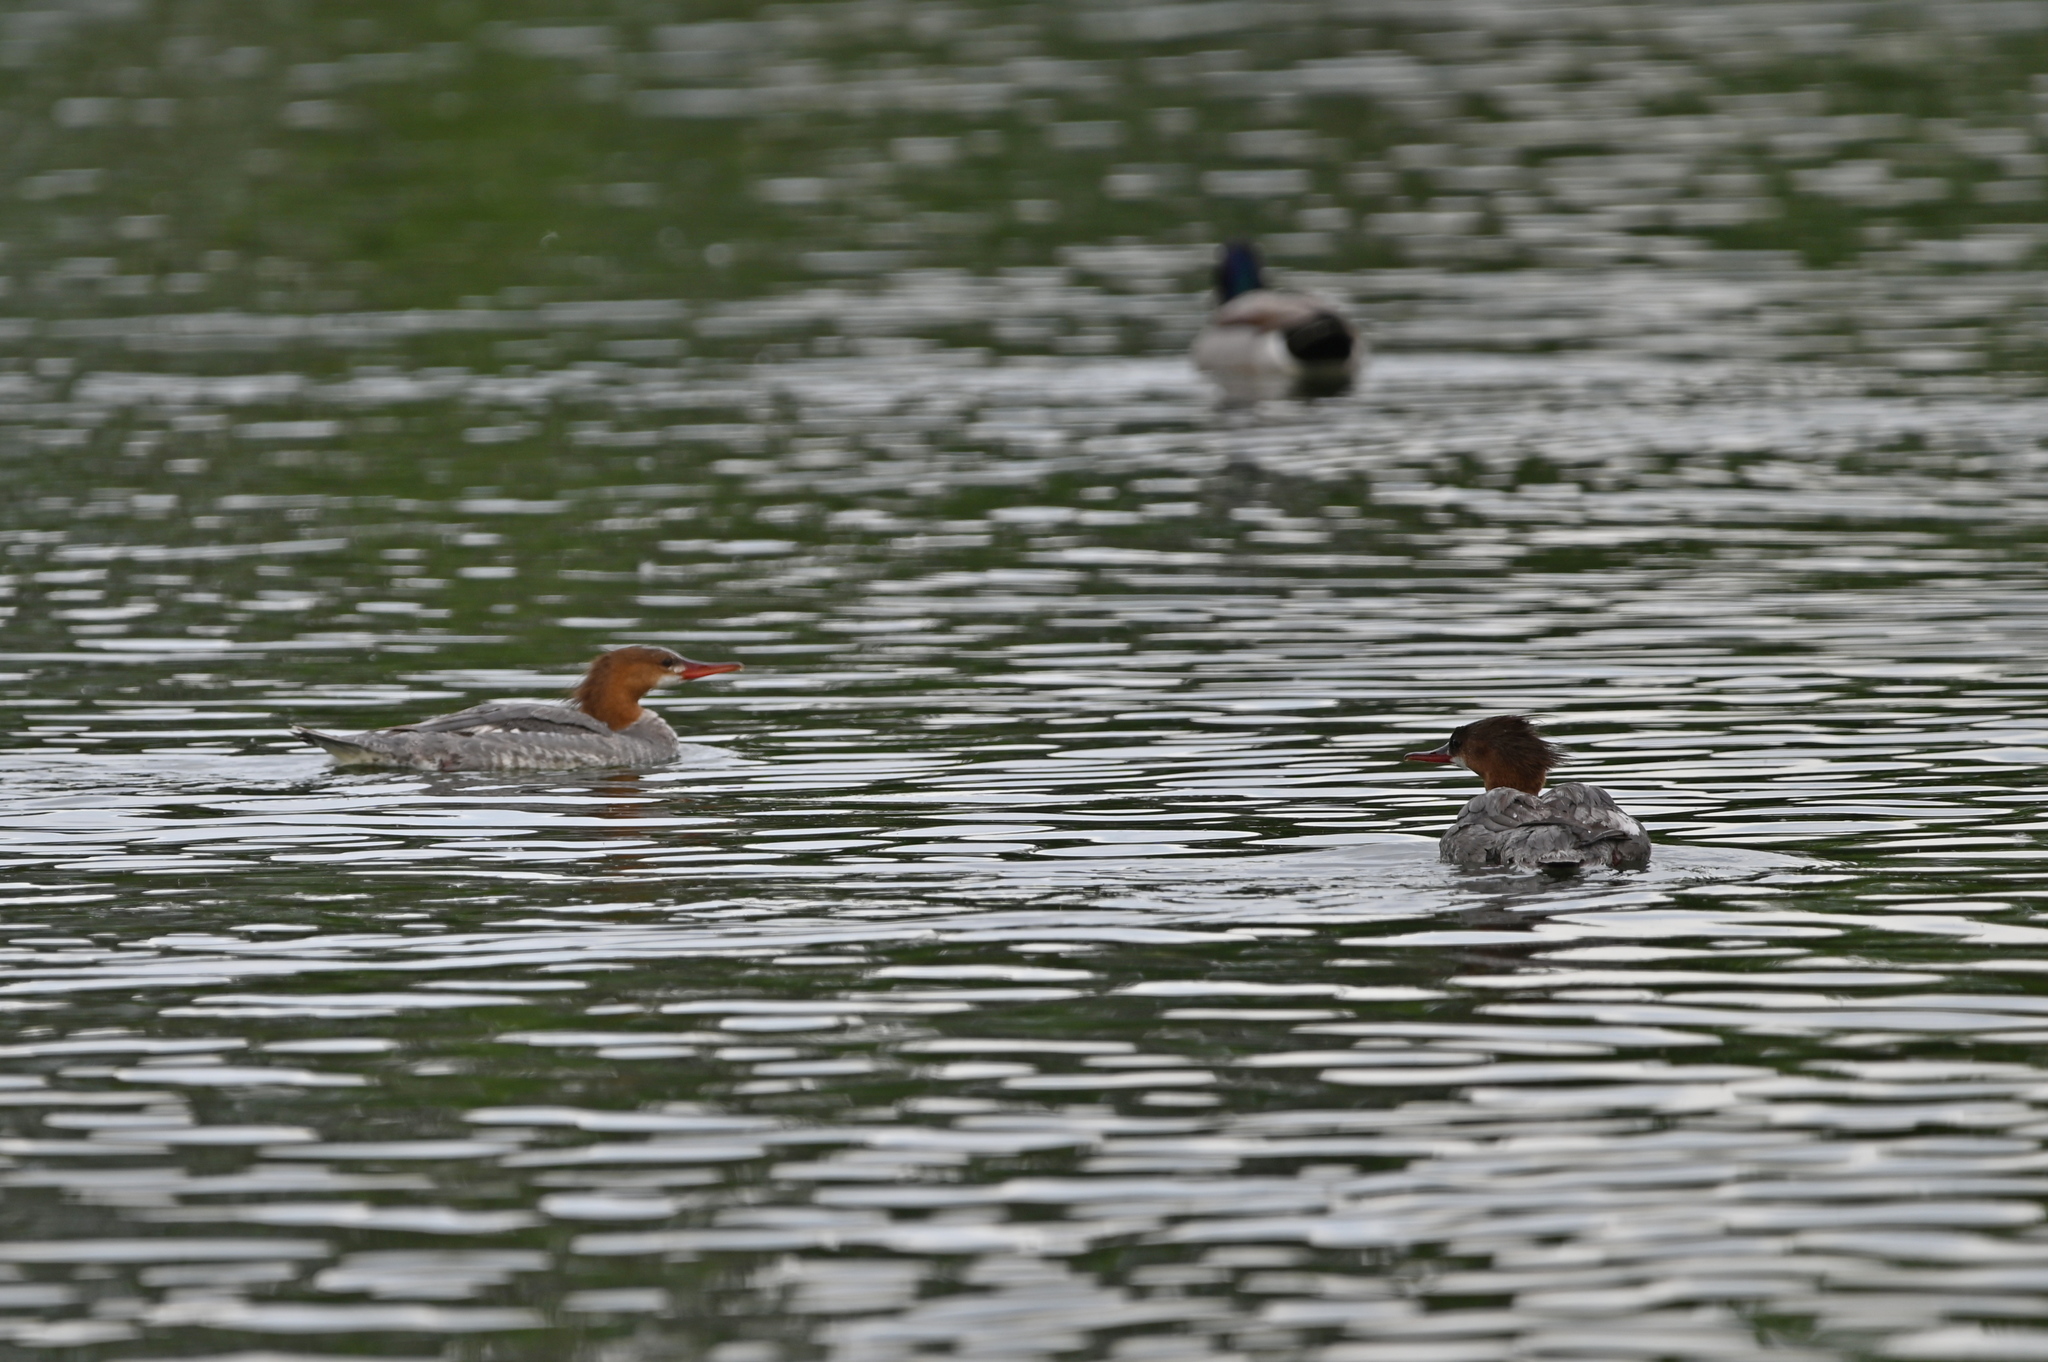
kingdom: Animalia
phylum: Chordata
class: Aves
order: Anseriformes
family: Anatidae
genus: Mergus
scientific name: Mergus merganser
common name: Common merganser
